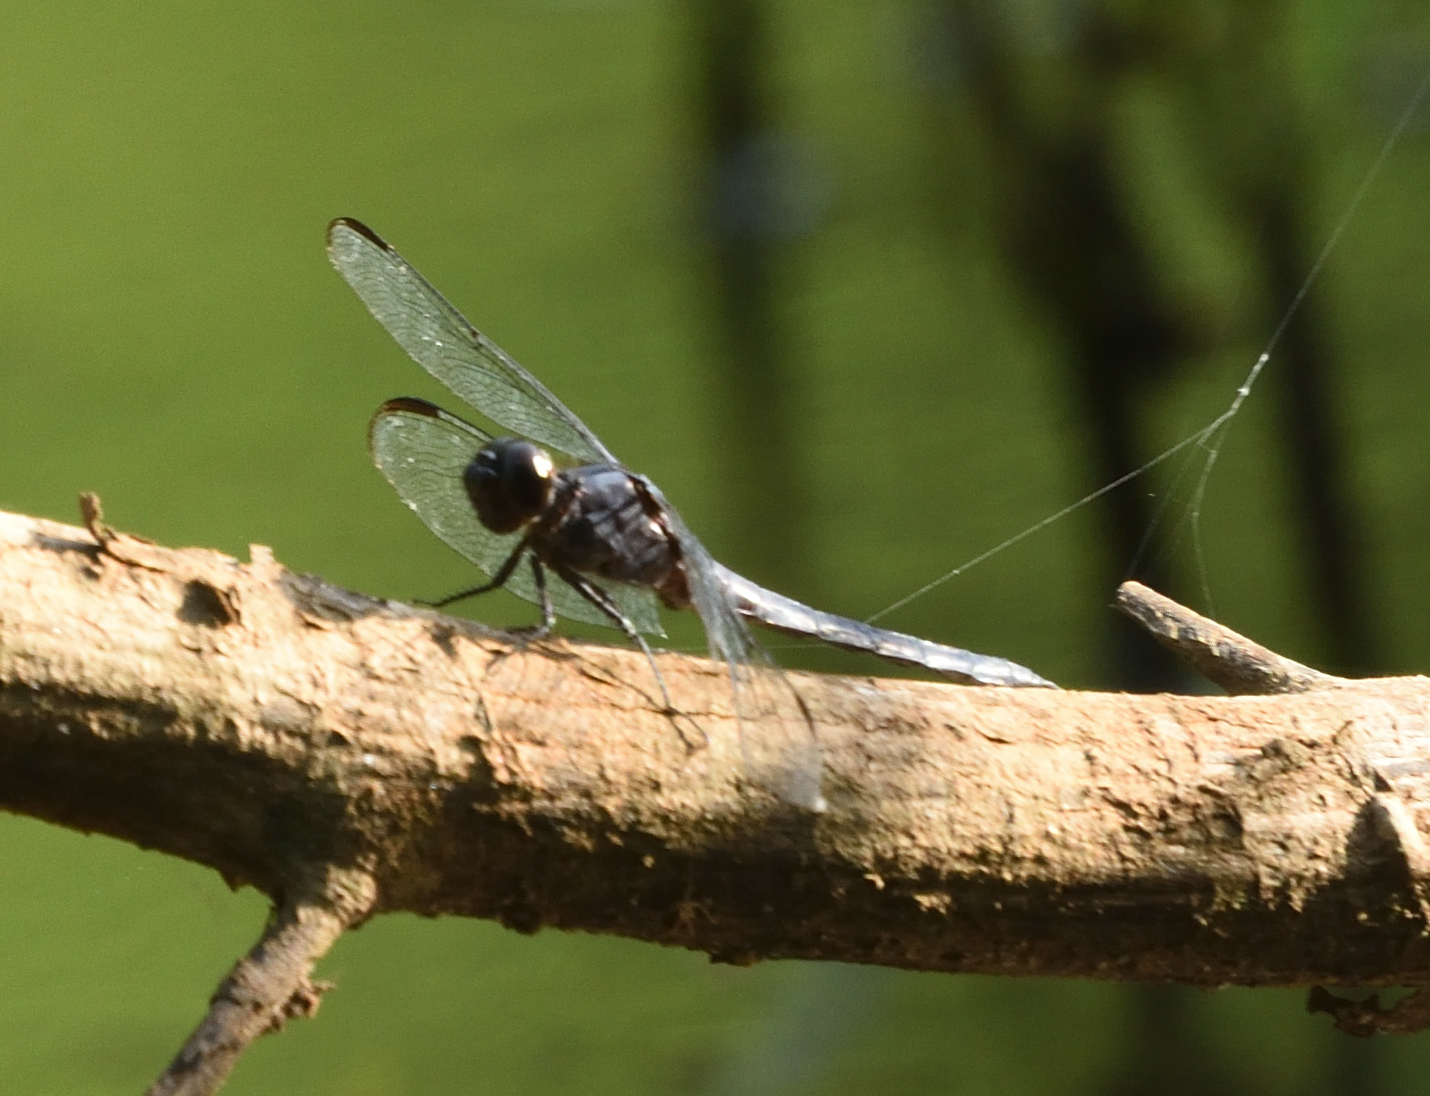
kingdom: Animalia
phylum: Arthropoda
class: Insecta
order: Odonata
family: Libellulidae
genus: Libellula
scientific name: Libellula incesta
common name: Slaty skimmer
